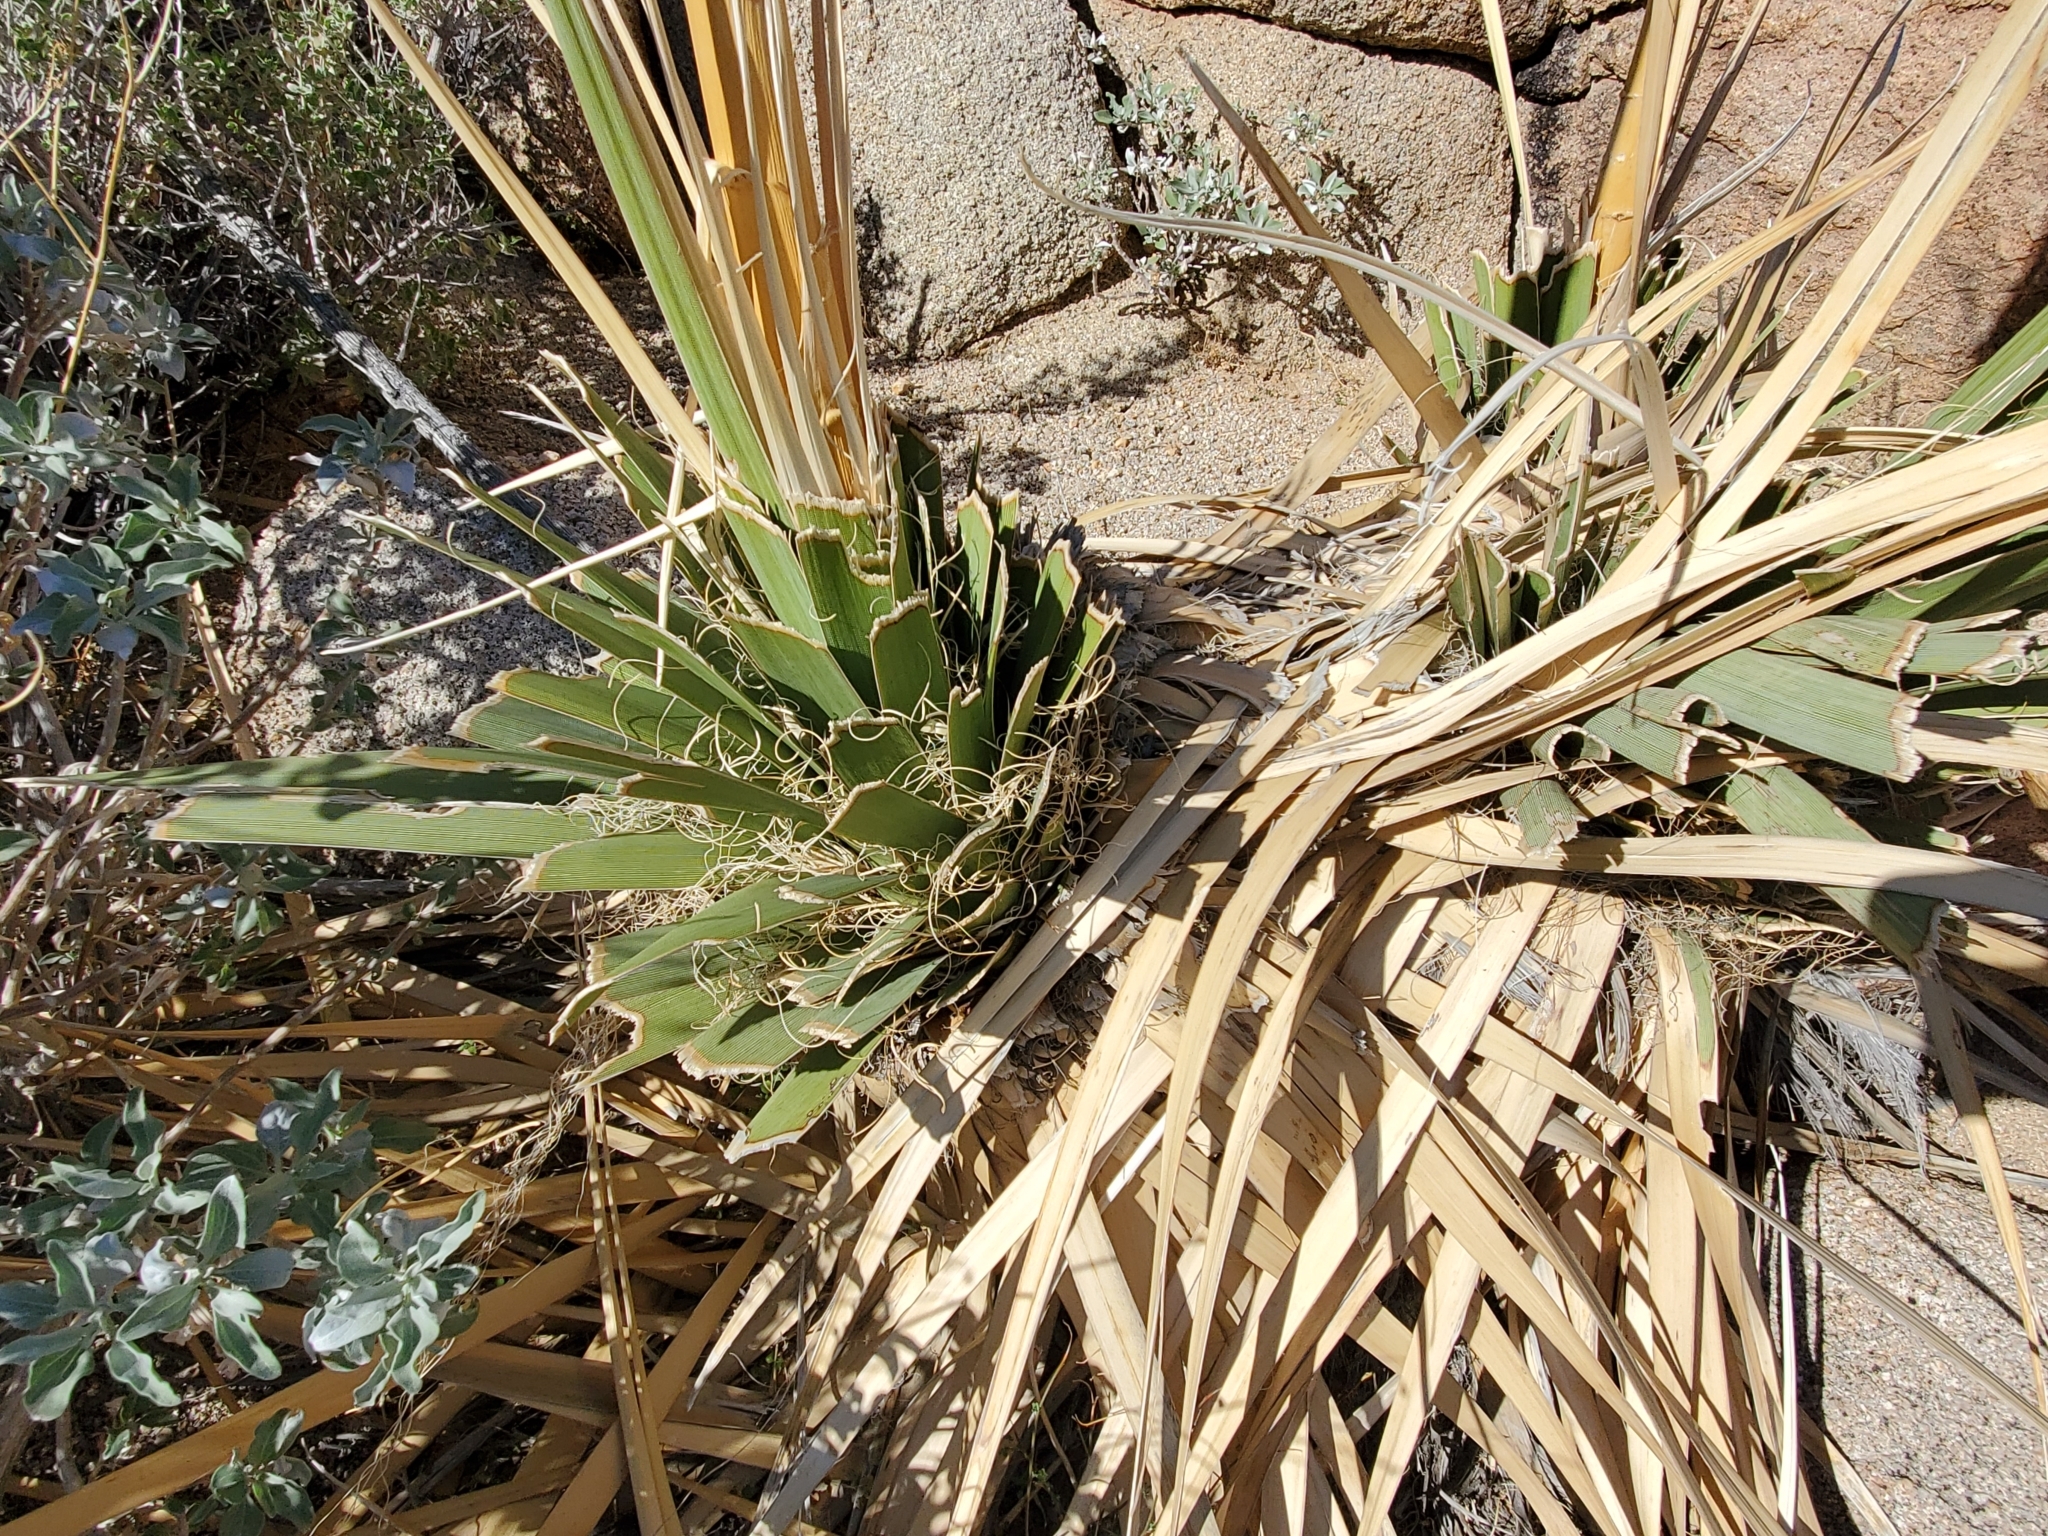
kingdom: Plantae
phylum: Tracheophyta
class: Liliopsida
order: Asparagales
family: Asparagaceae
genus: Nolina
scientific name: Nolina bigelovii
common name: Bigelow bear-grass
